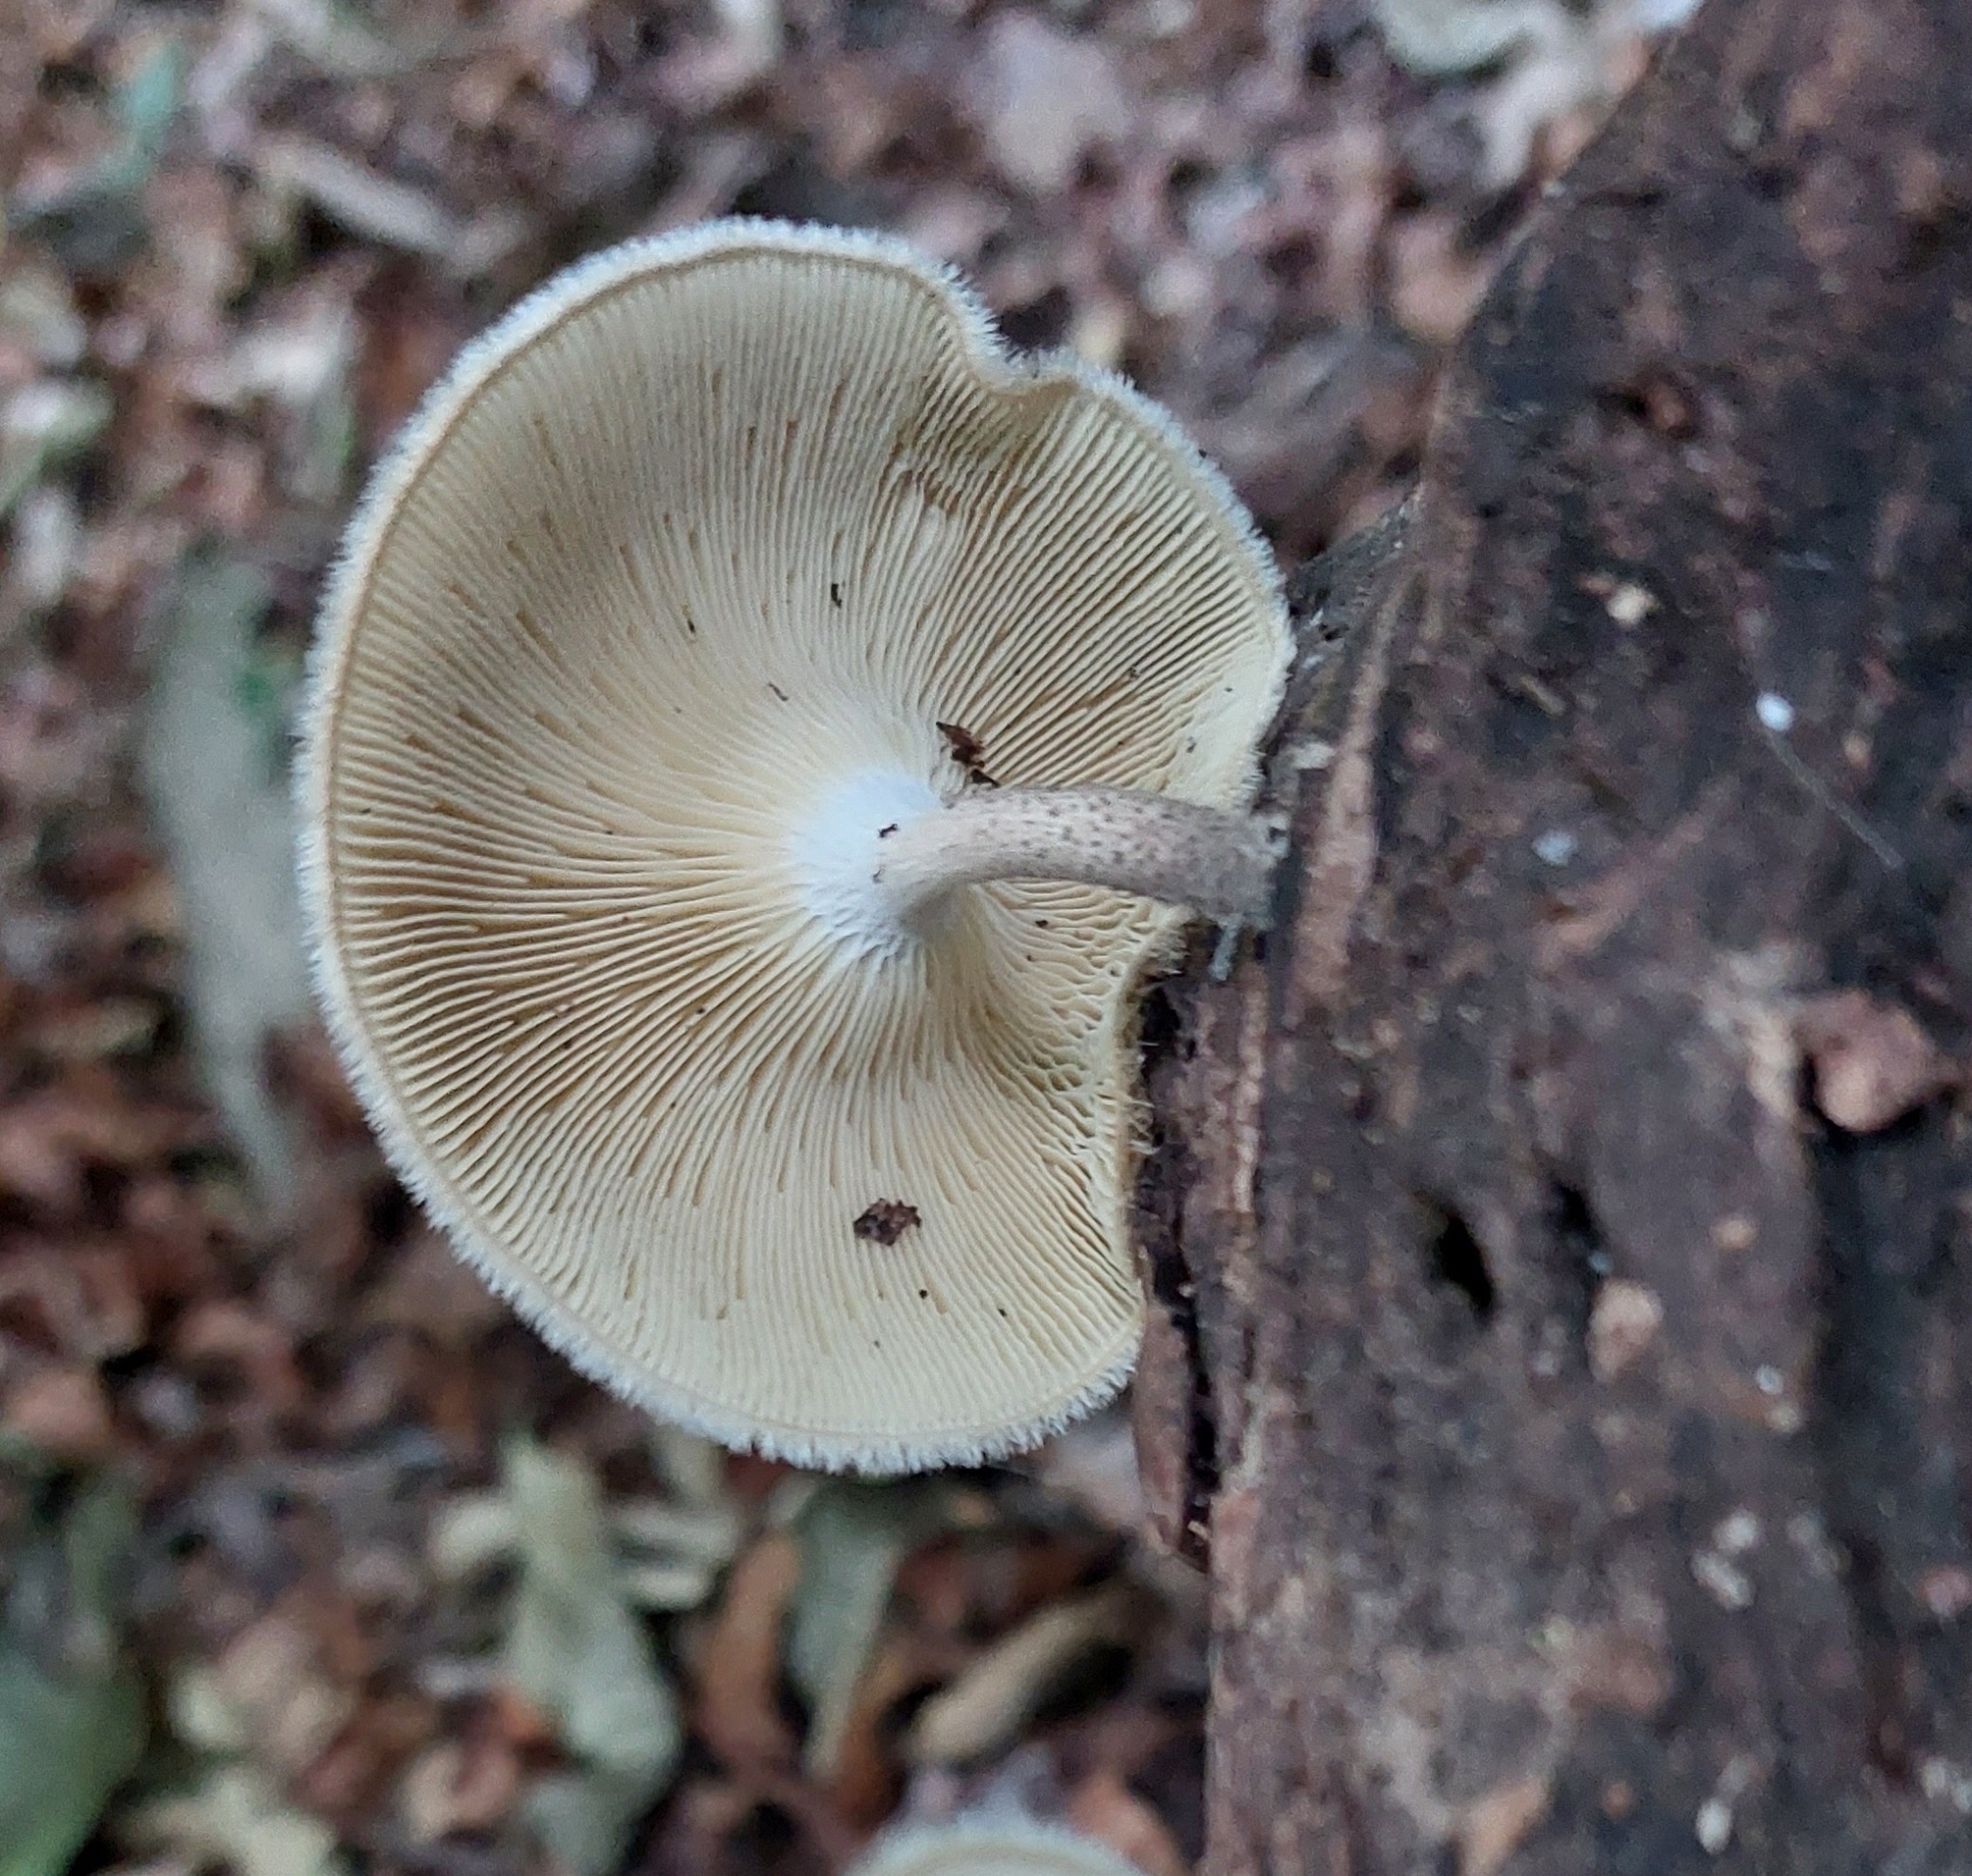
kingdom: Fungi
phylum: Basidiomycota
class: Agaricomycetes
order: Polyporales
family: Polyporaceae
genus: Lentinus
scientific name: Lentinus crinitus
